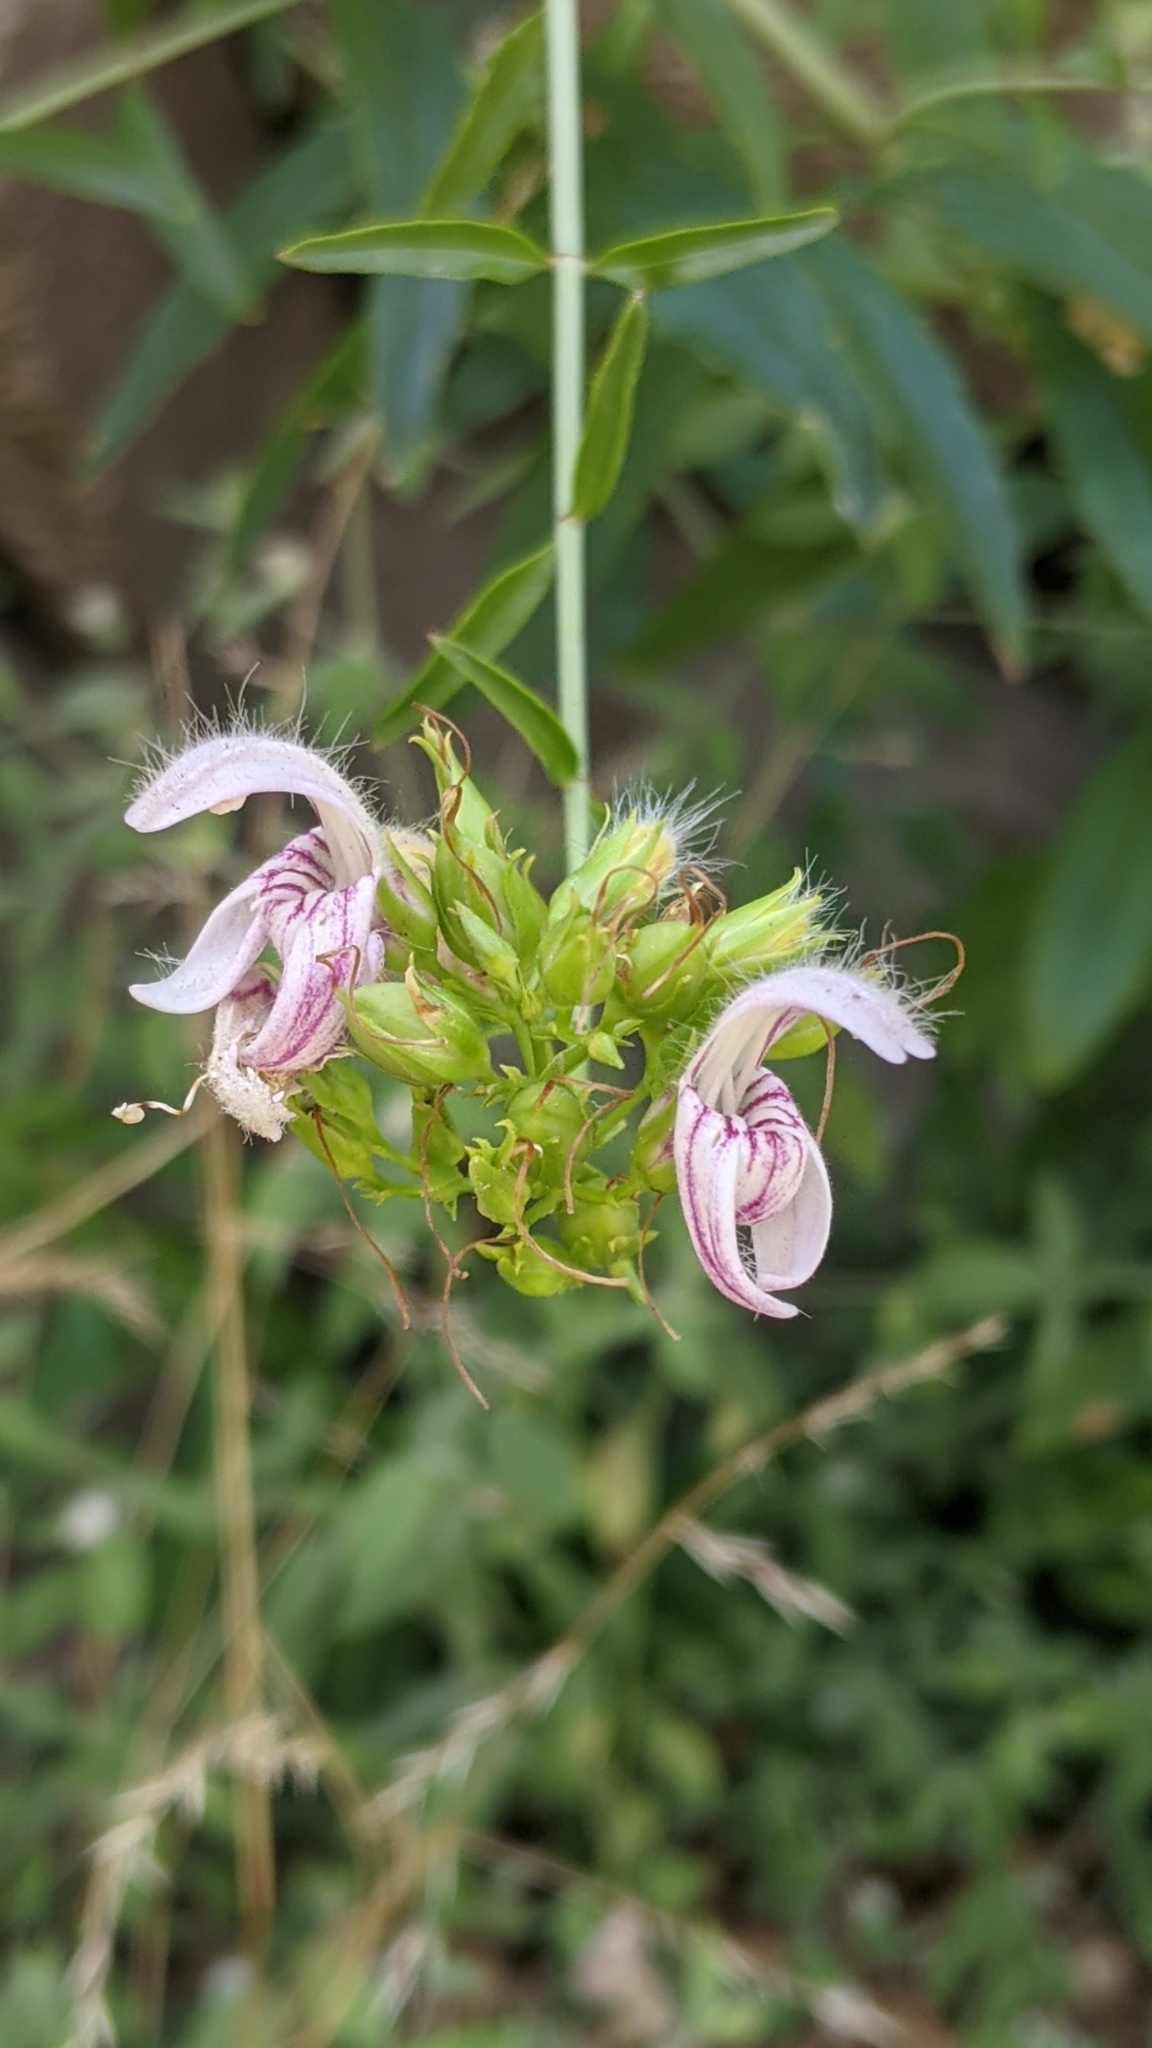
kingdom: Plantae
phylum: Tracheophyta
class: Magnoliopsida
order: Lamiales
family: Plantaginaceae
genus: Keckiella
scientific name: Keckiella breviflora
